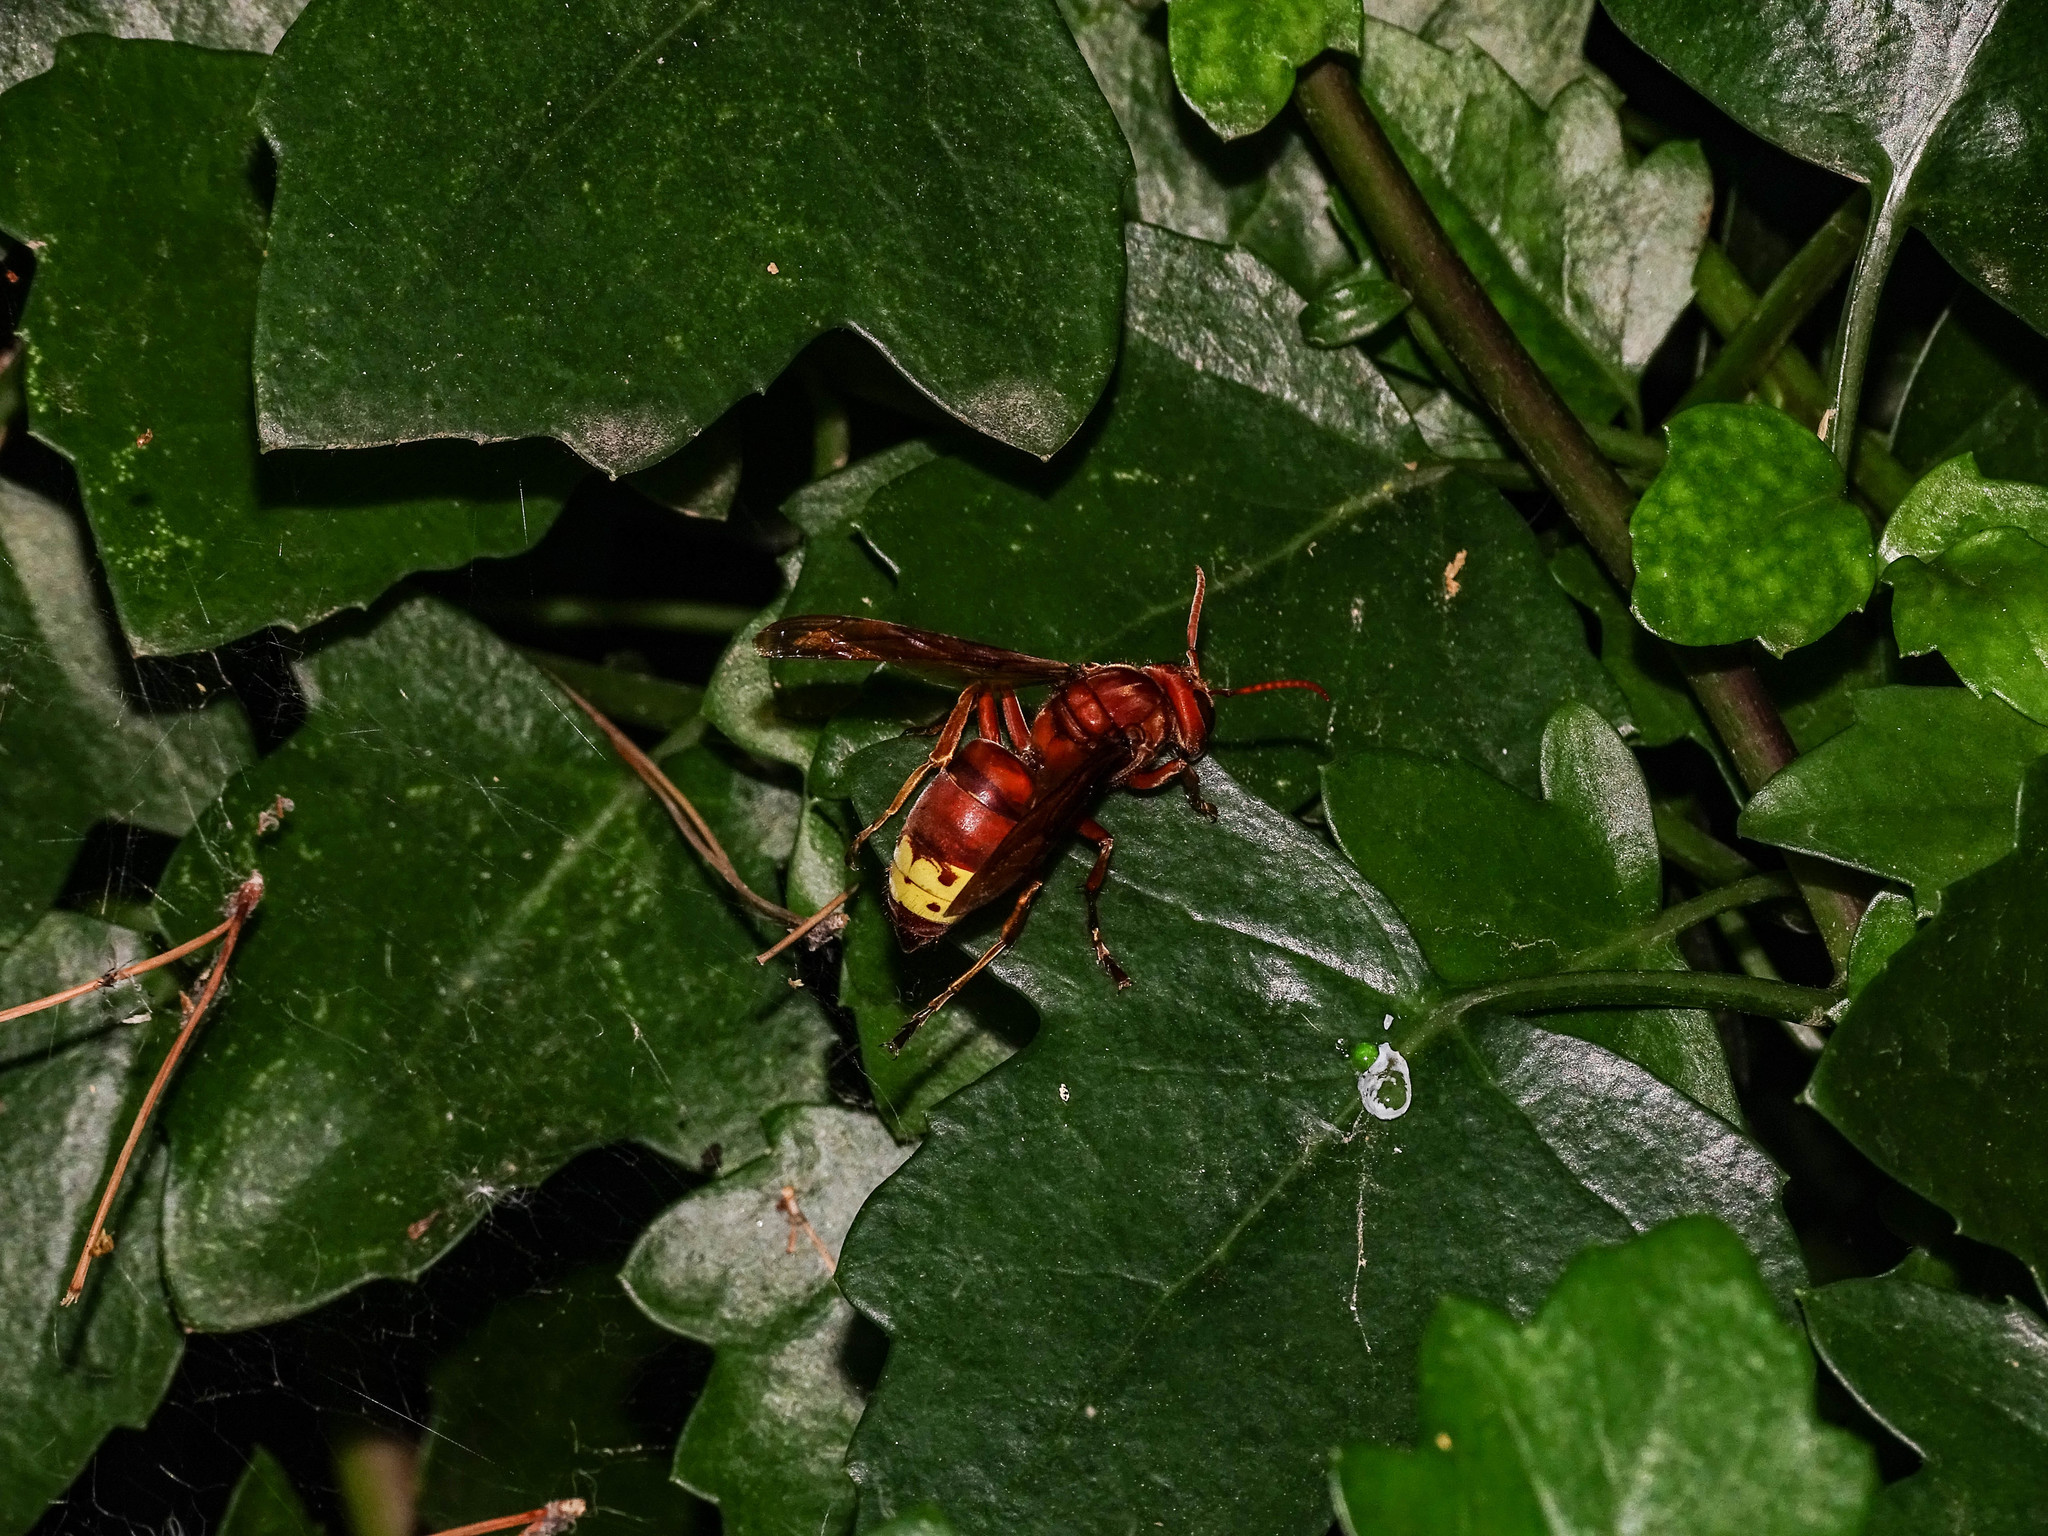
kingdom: Animalia
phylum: Arthropoda
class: Insecta
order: Hymenoptera
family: Vespidae
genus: Vespa
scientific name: Vespa orientalis
